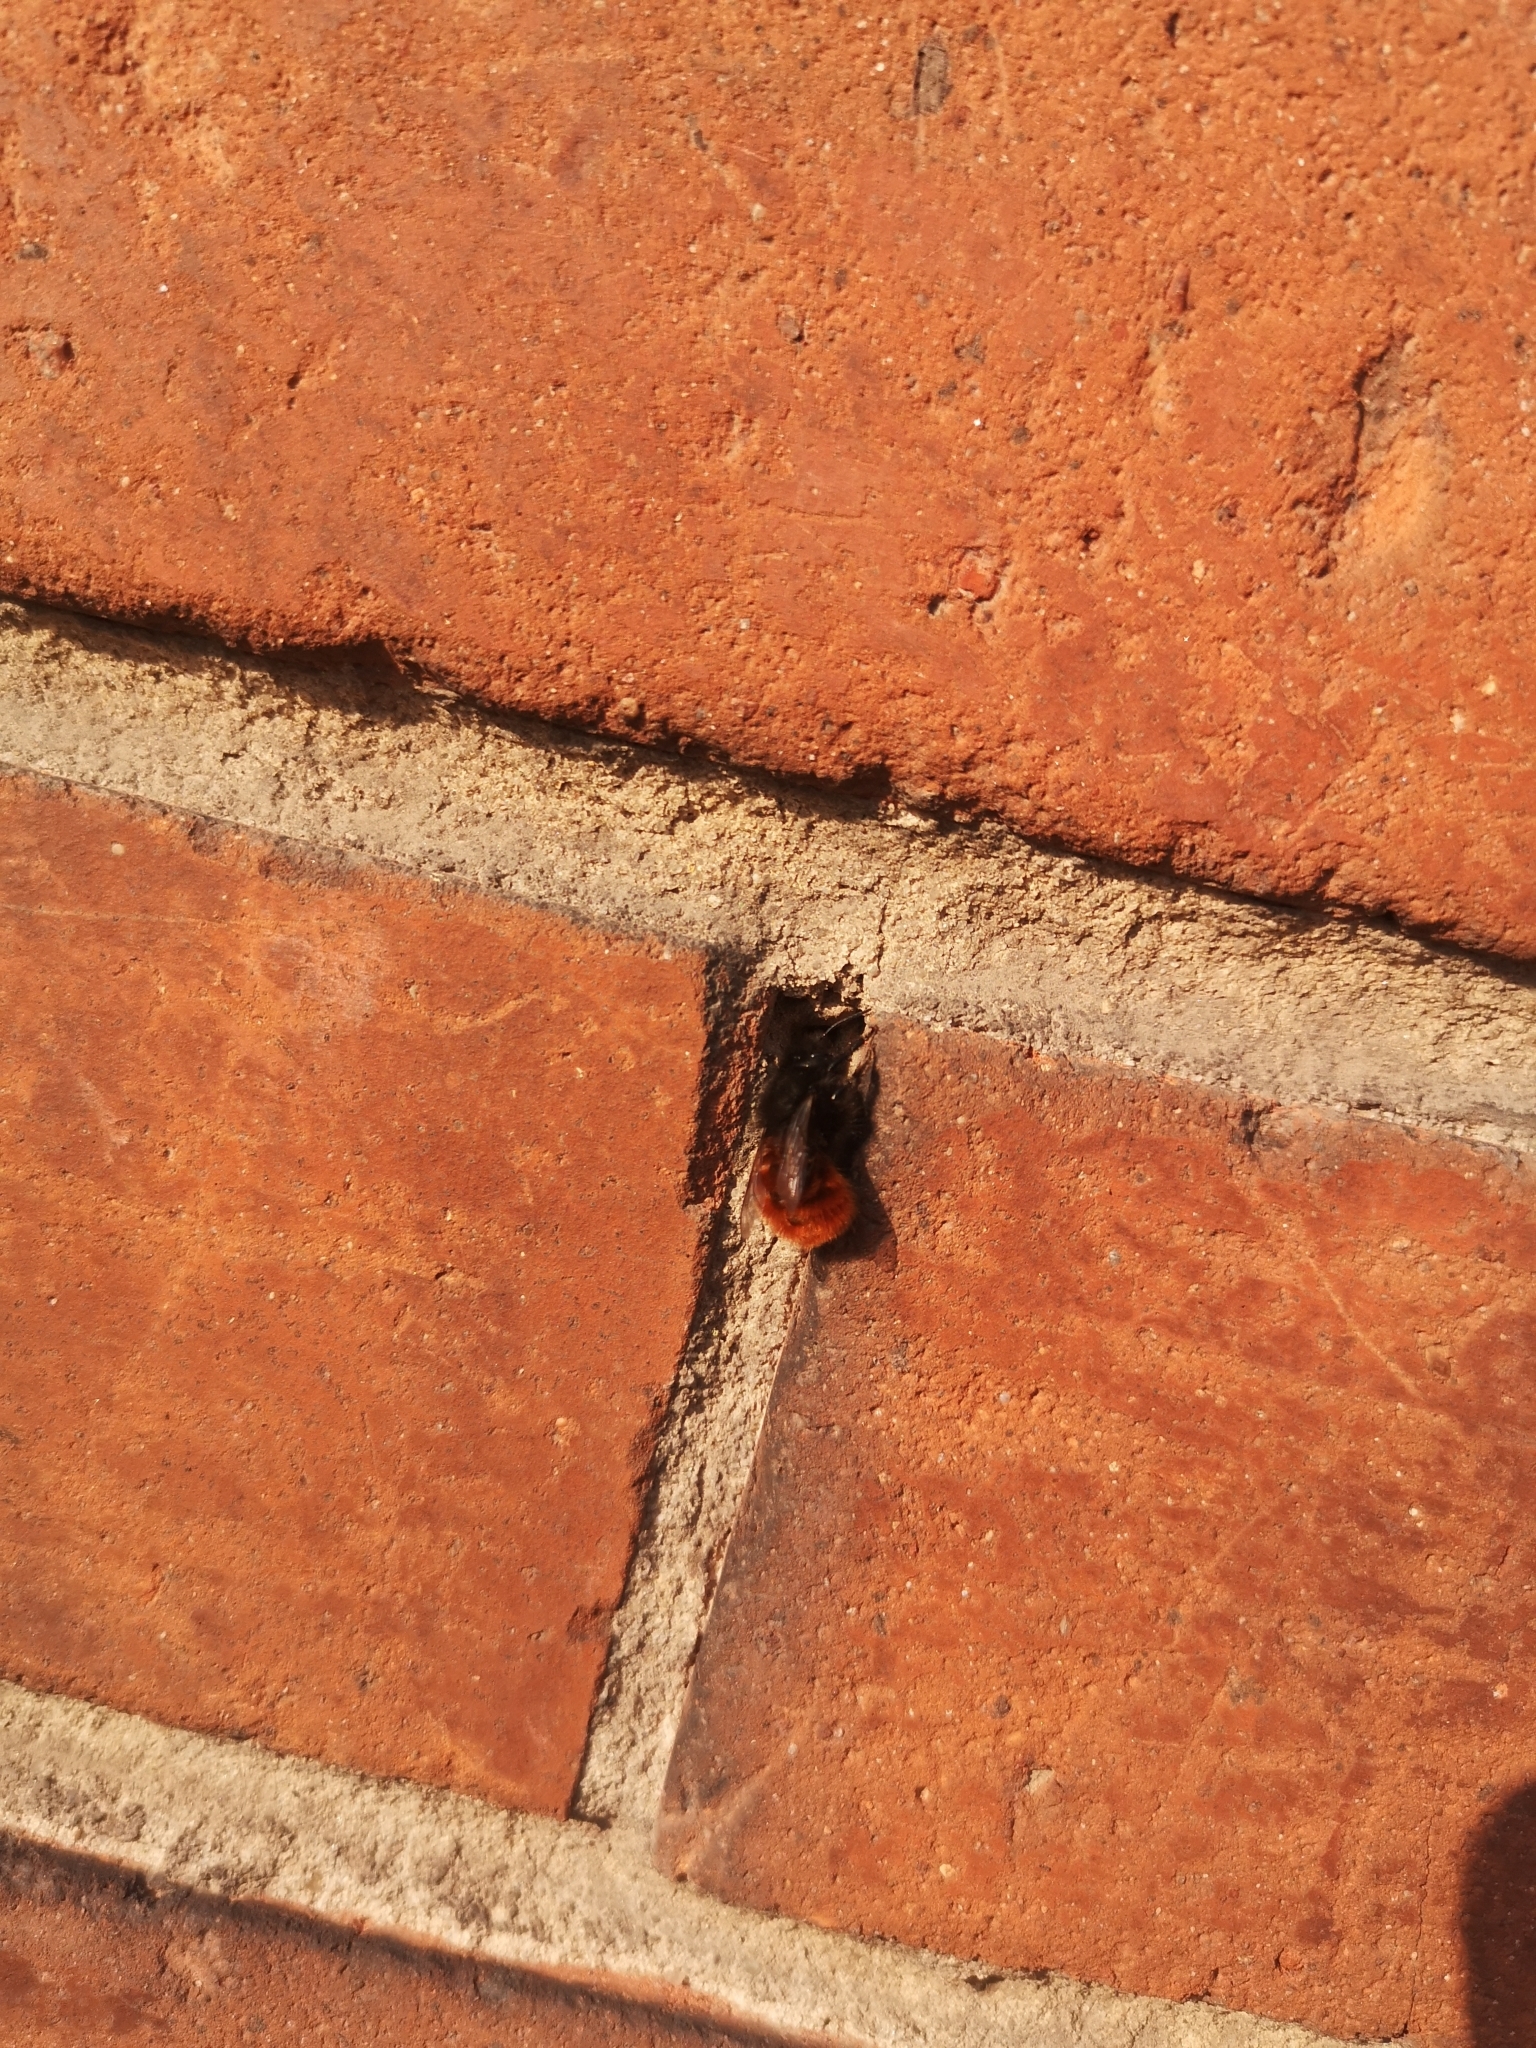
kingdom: Animalia
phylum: Arthropoda
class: Insecta
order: Hymenoptera
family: Megachilidae
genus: Osmia
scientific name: Osmia cornuta
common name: Mason bee
